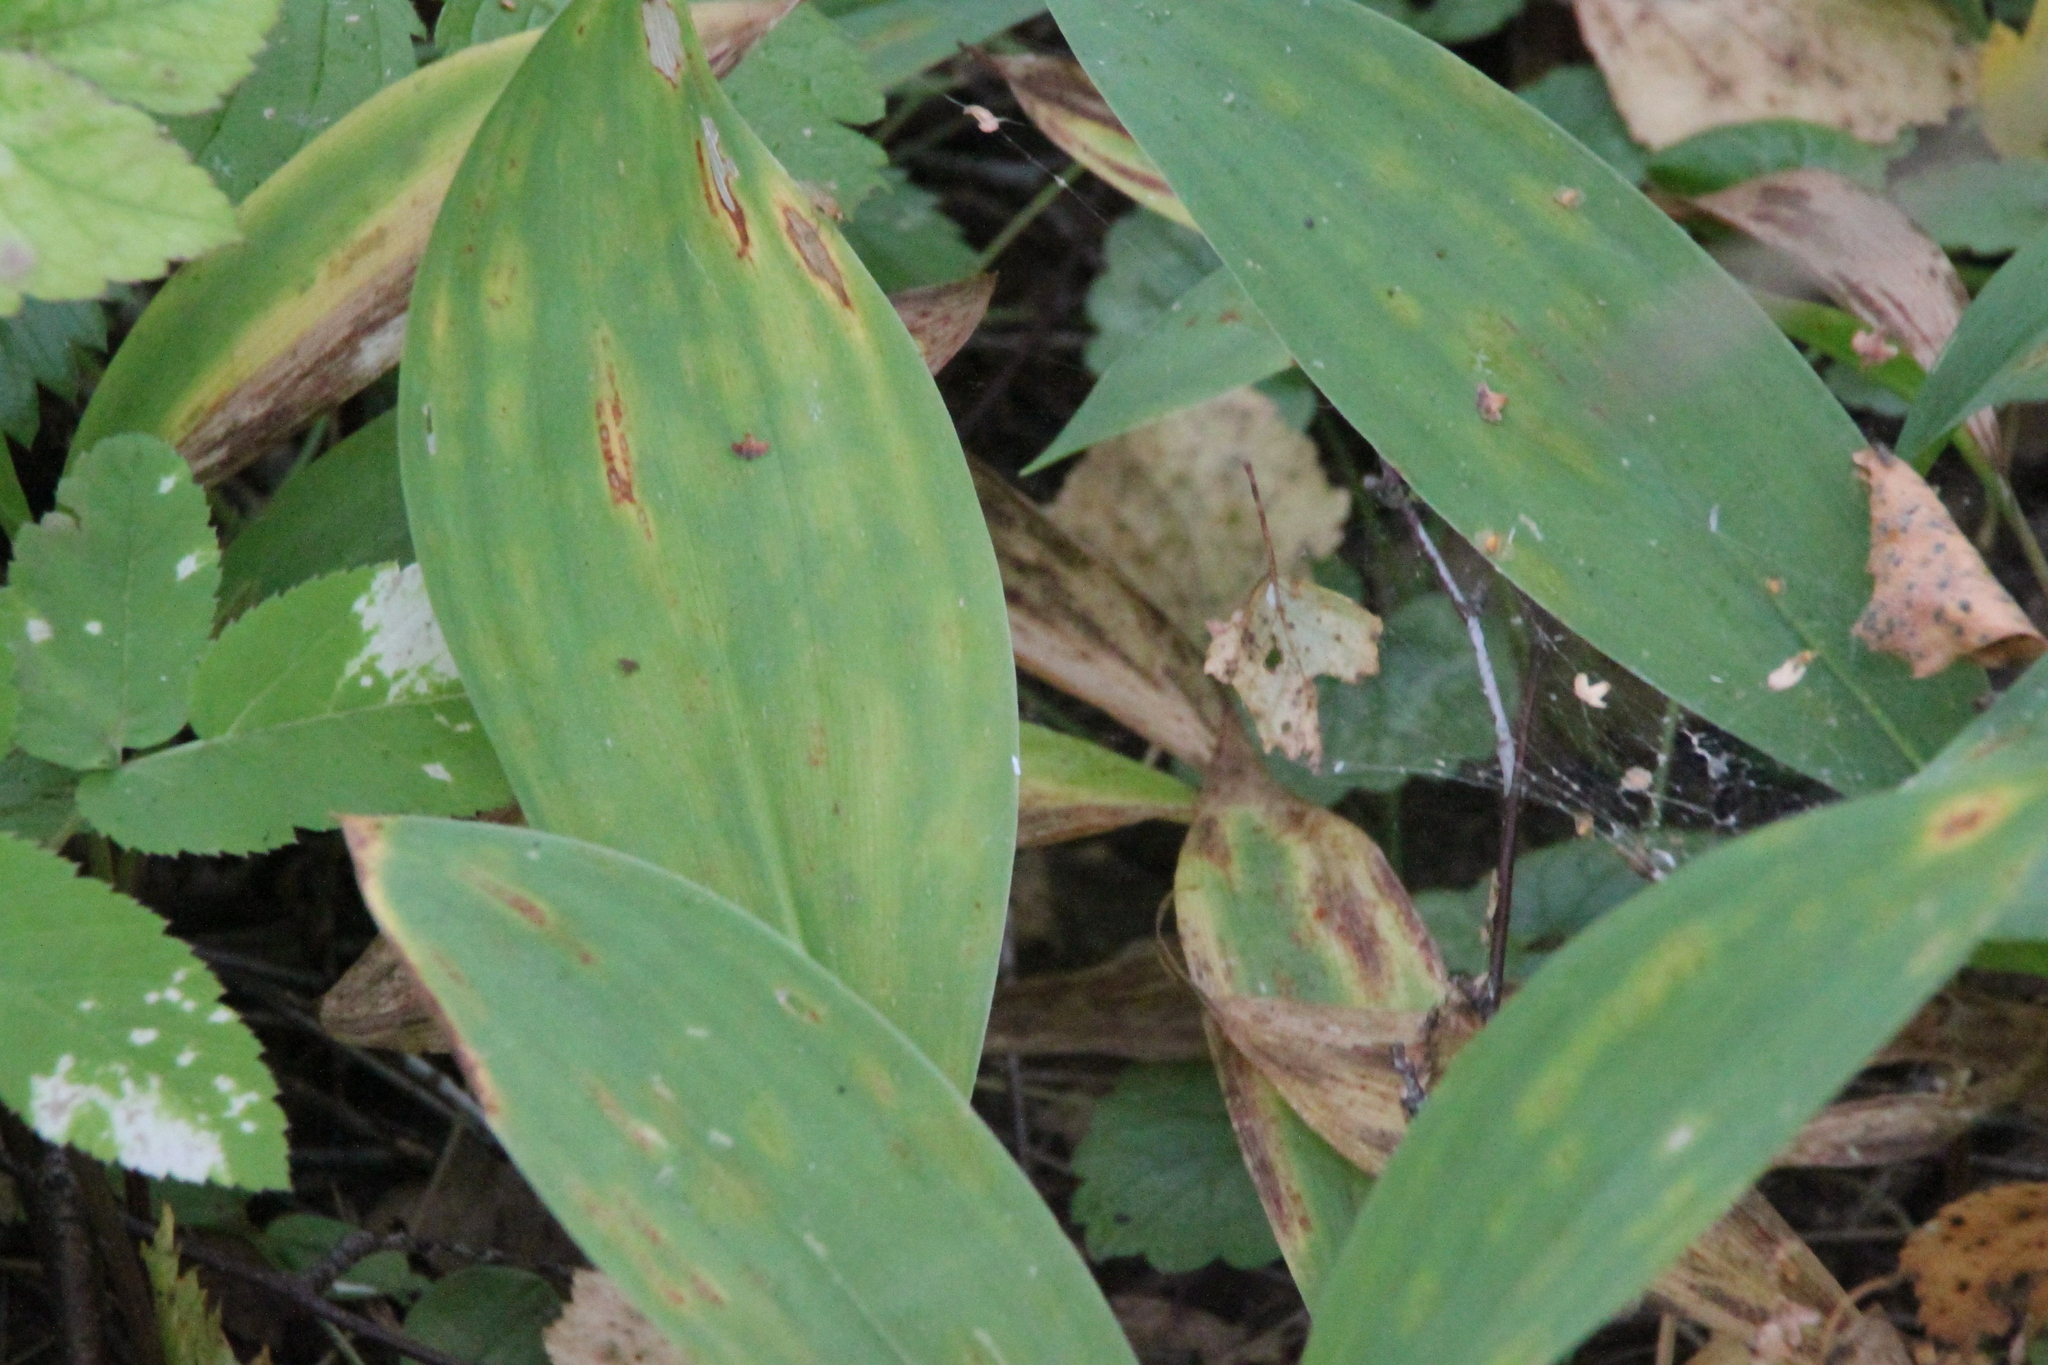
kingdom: Plantae
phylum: Tracheophyta
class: Liliopsida
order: Asparagales
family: Asparagaceae
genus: Convallaria
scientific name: Convallaria majalis
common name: Lily-of-the-valley
